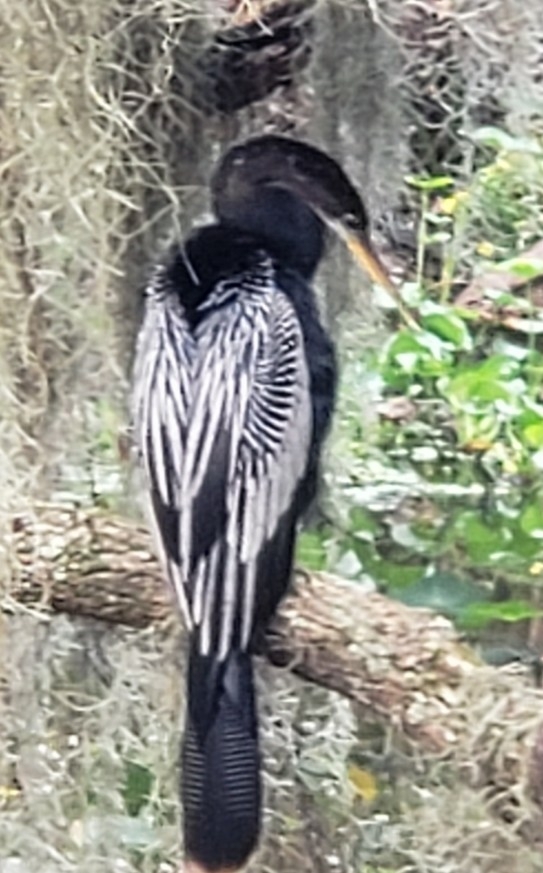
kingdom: Animalia
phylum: Chordata
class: Aves
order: Suliformes
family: Anhingidae
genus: Anhinga
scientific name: Anhinga anhinga
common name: Anhinga
